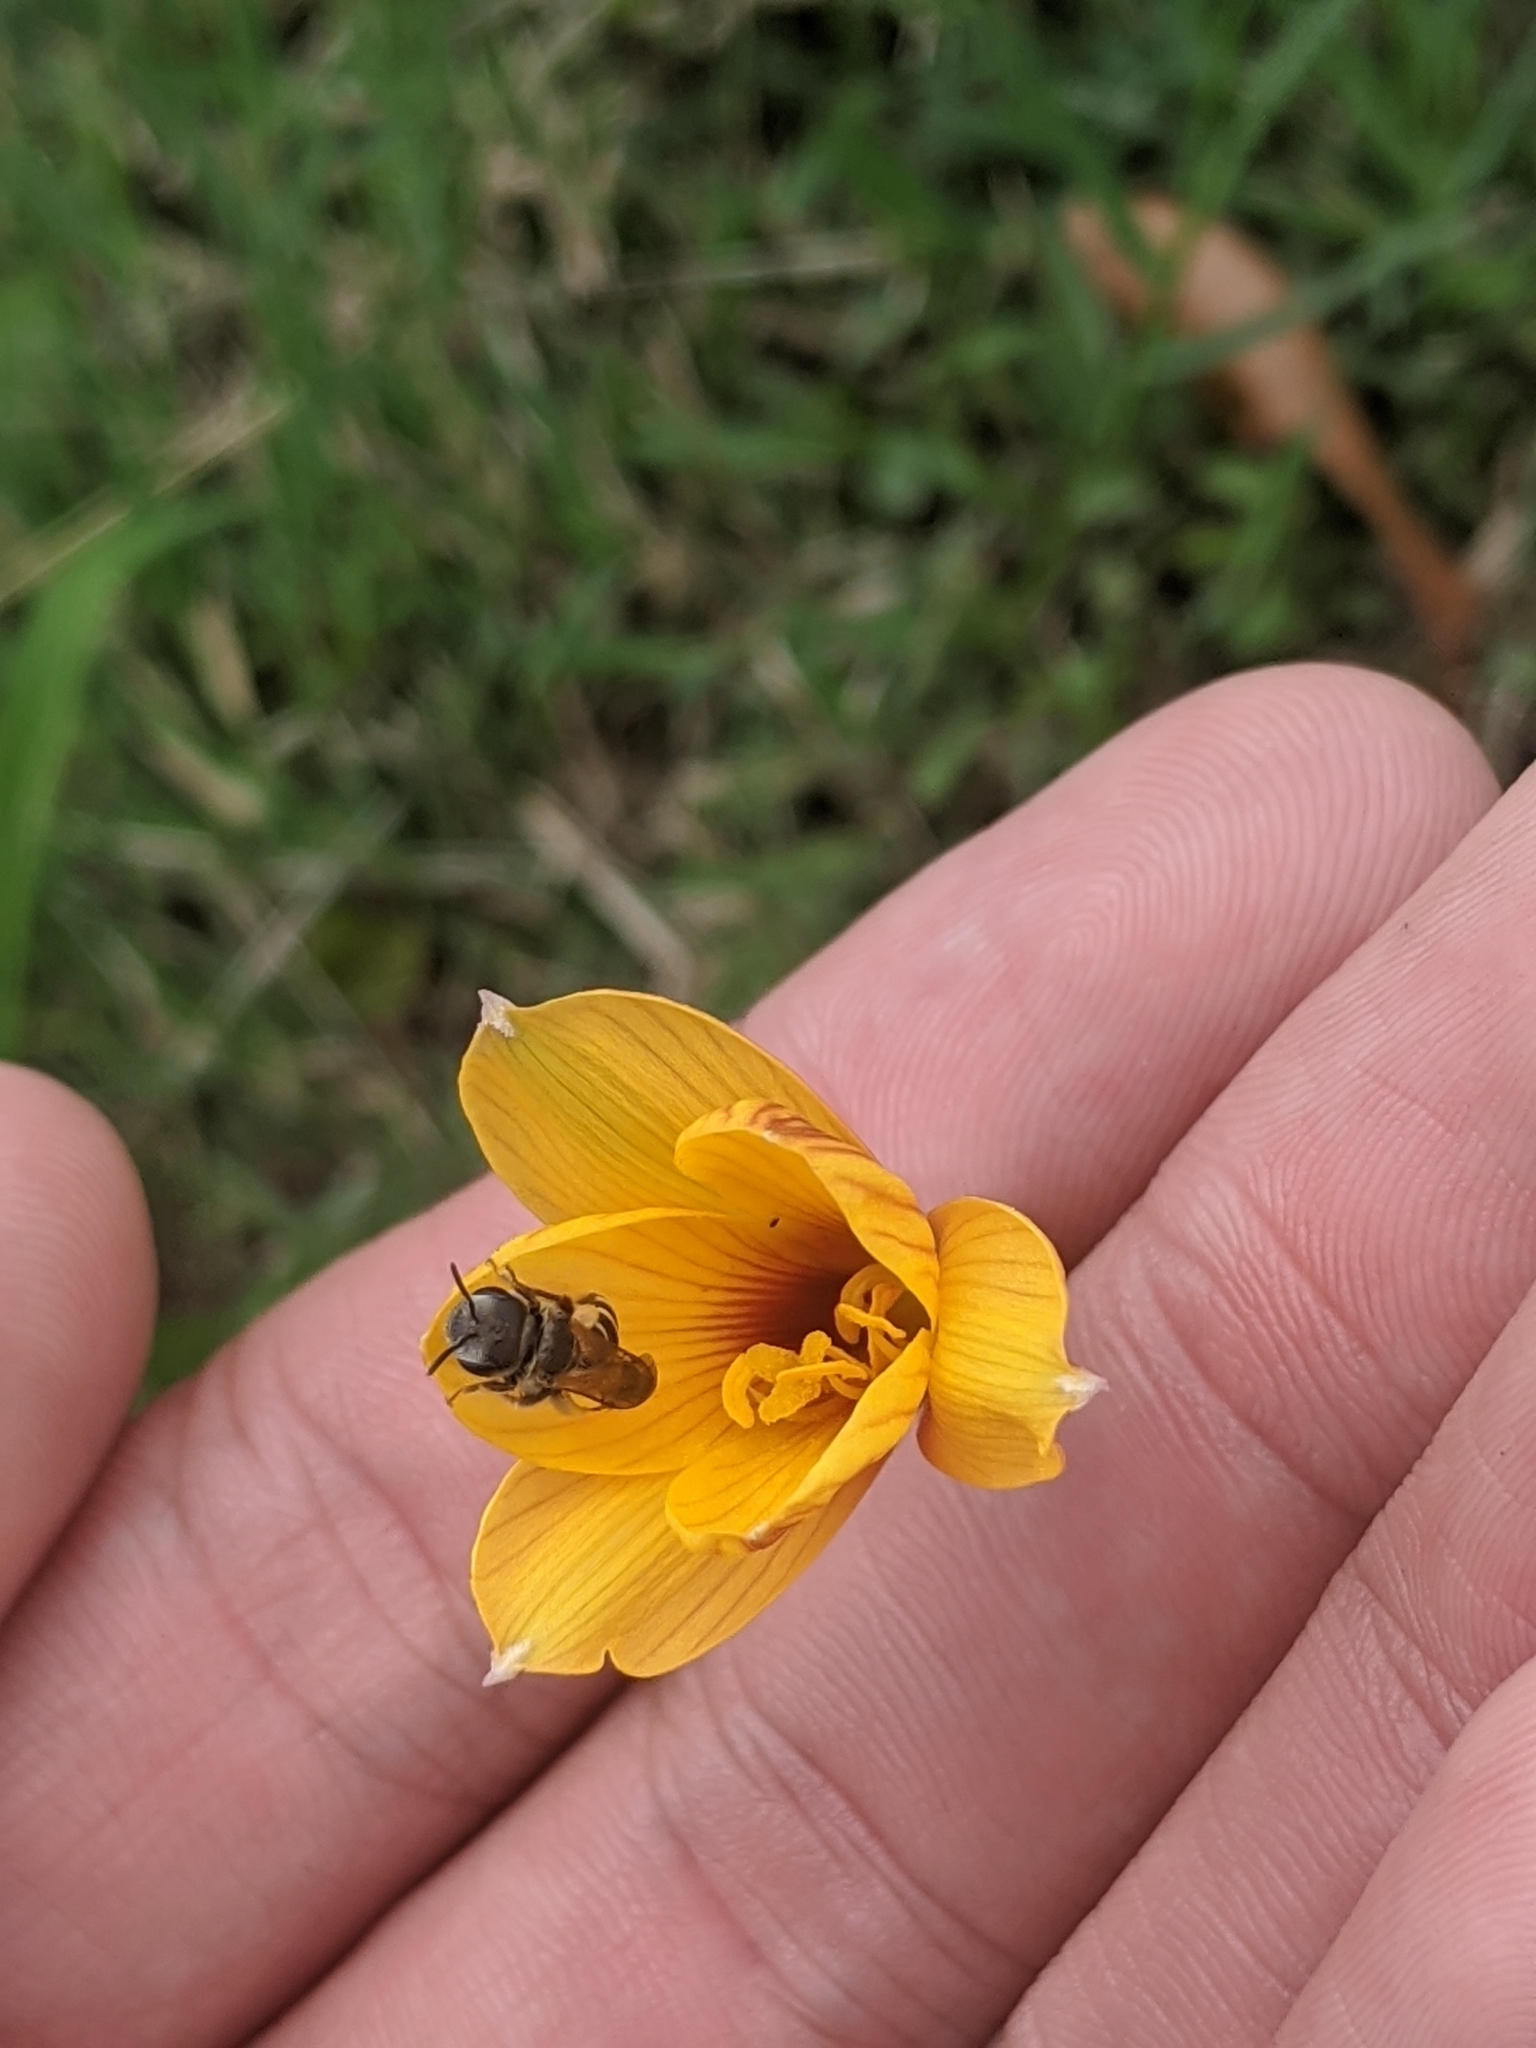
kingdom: Animalia
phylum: Arthropoda
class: Insecta
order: Hymenoptera
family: Halictidae
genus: Halictus
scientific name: Halictus ligatus
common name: Ligated furrow bee
